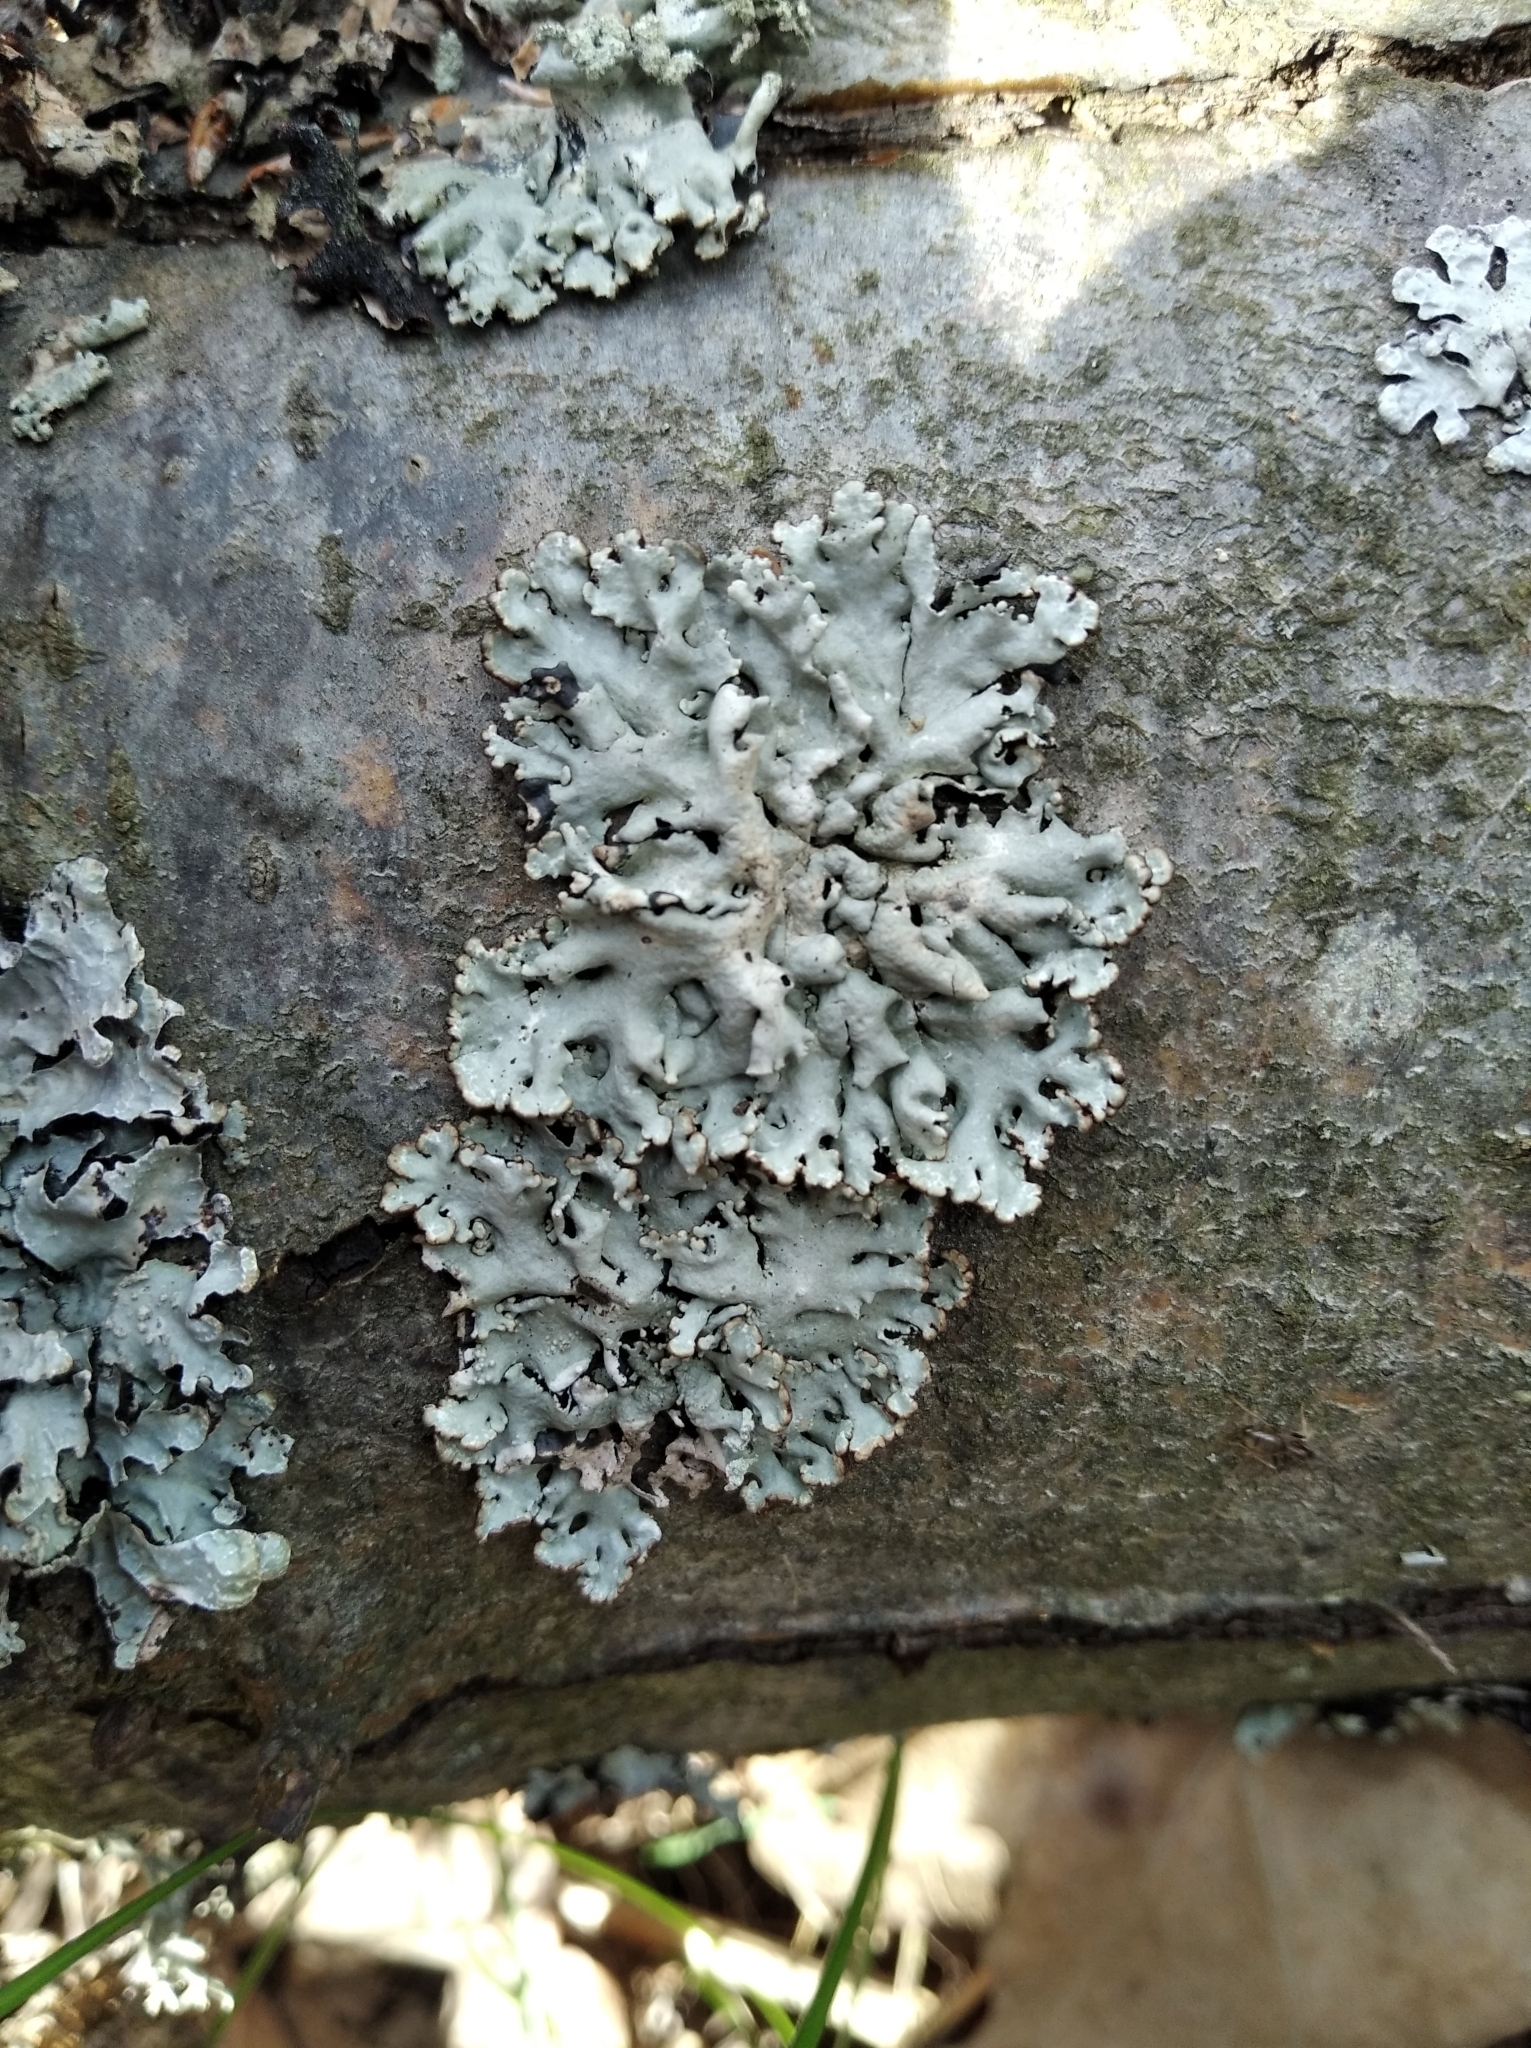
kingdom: Fungi
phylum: Ascomycota
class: Lecanoromycetes
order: Lecanorales
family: Parmeliaceae
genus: Hypogymnia
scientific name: Hypogymnia physodes
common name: Dark crottle
